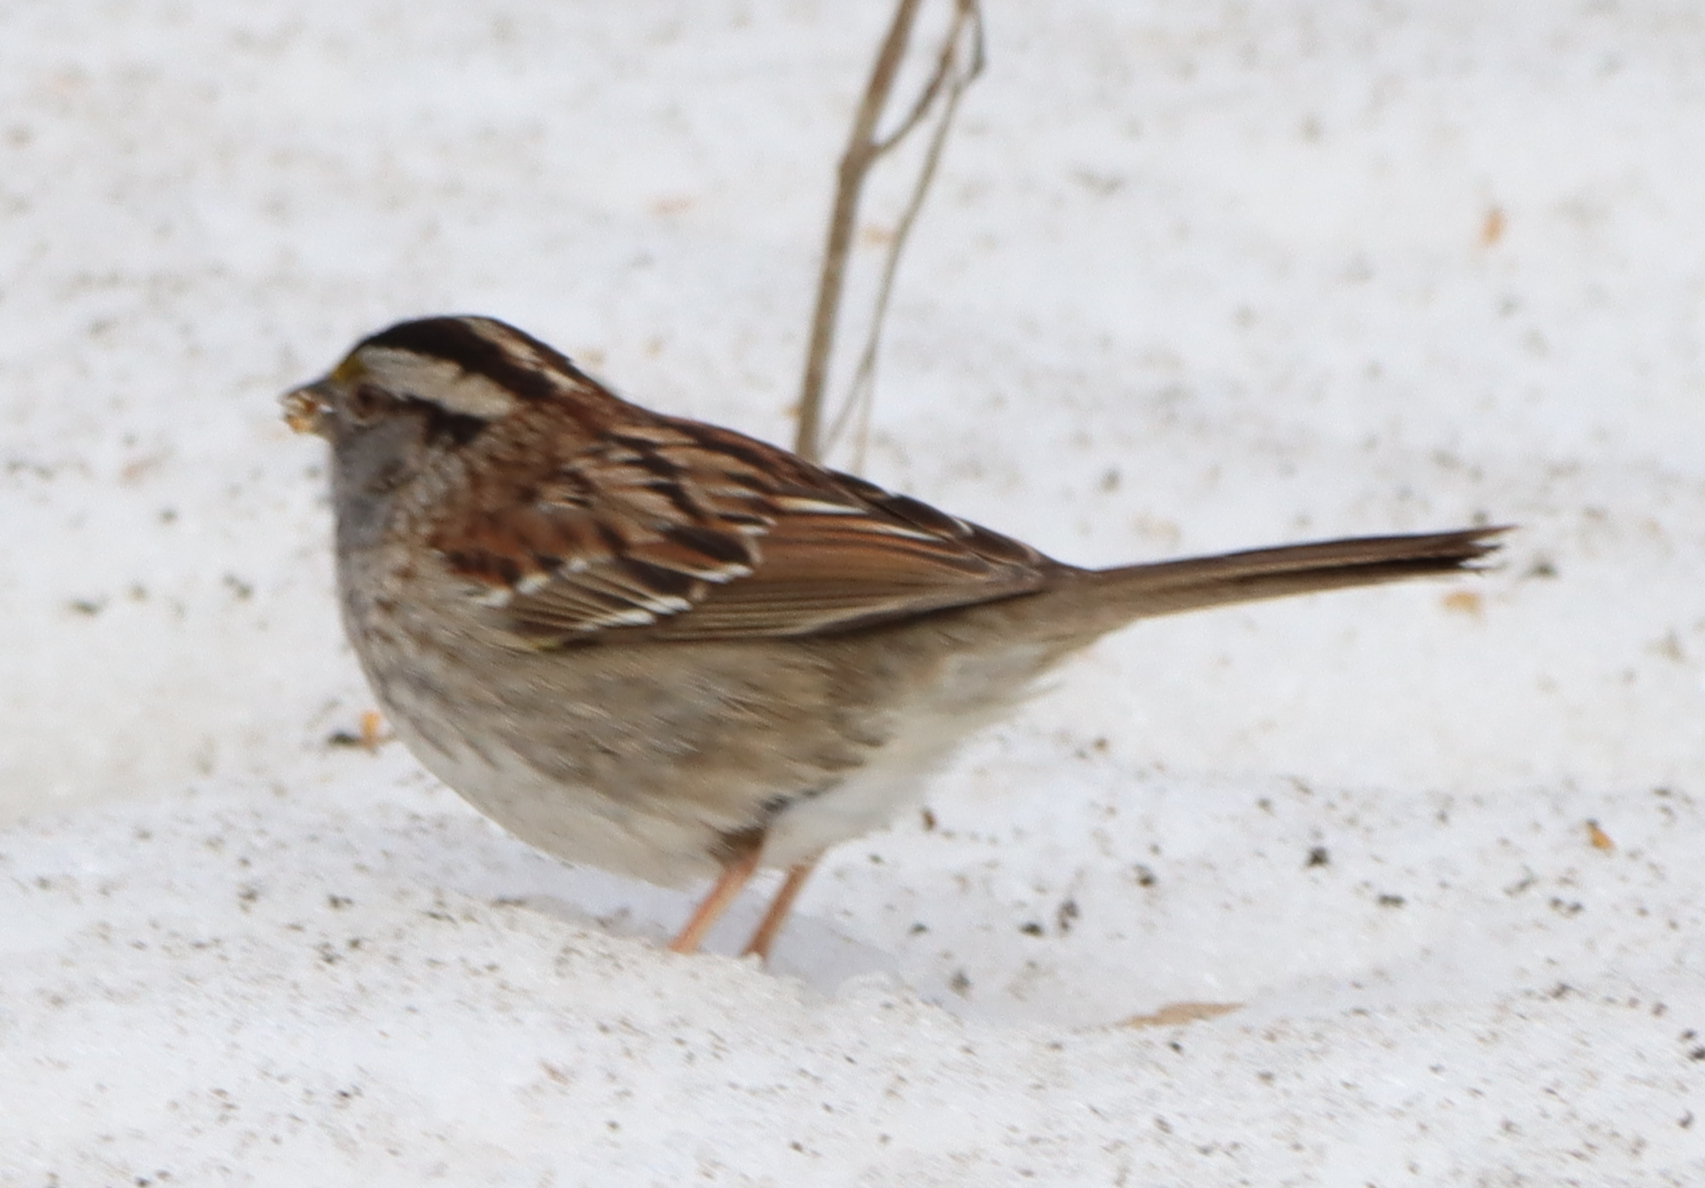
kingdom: Animalia
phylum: Chordata
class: Aves
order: Passeriformes
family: Passerellidae
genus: Zonotrichia
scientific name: Zonotrichia albicollis
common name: White-throated sparrow
